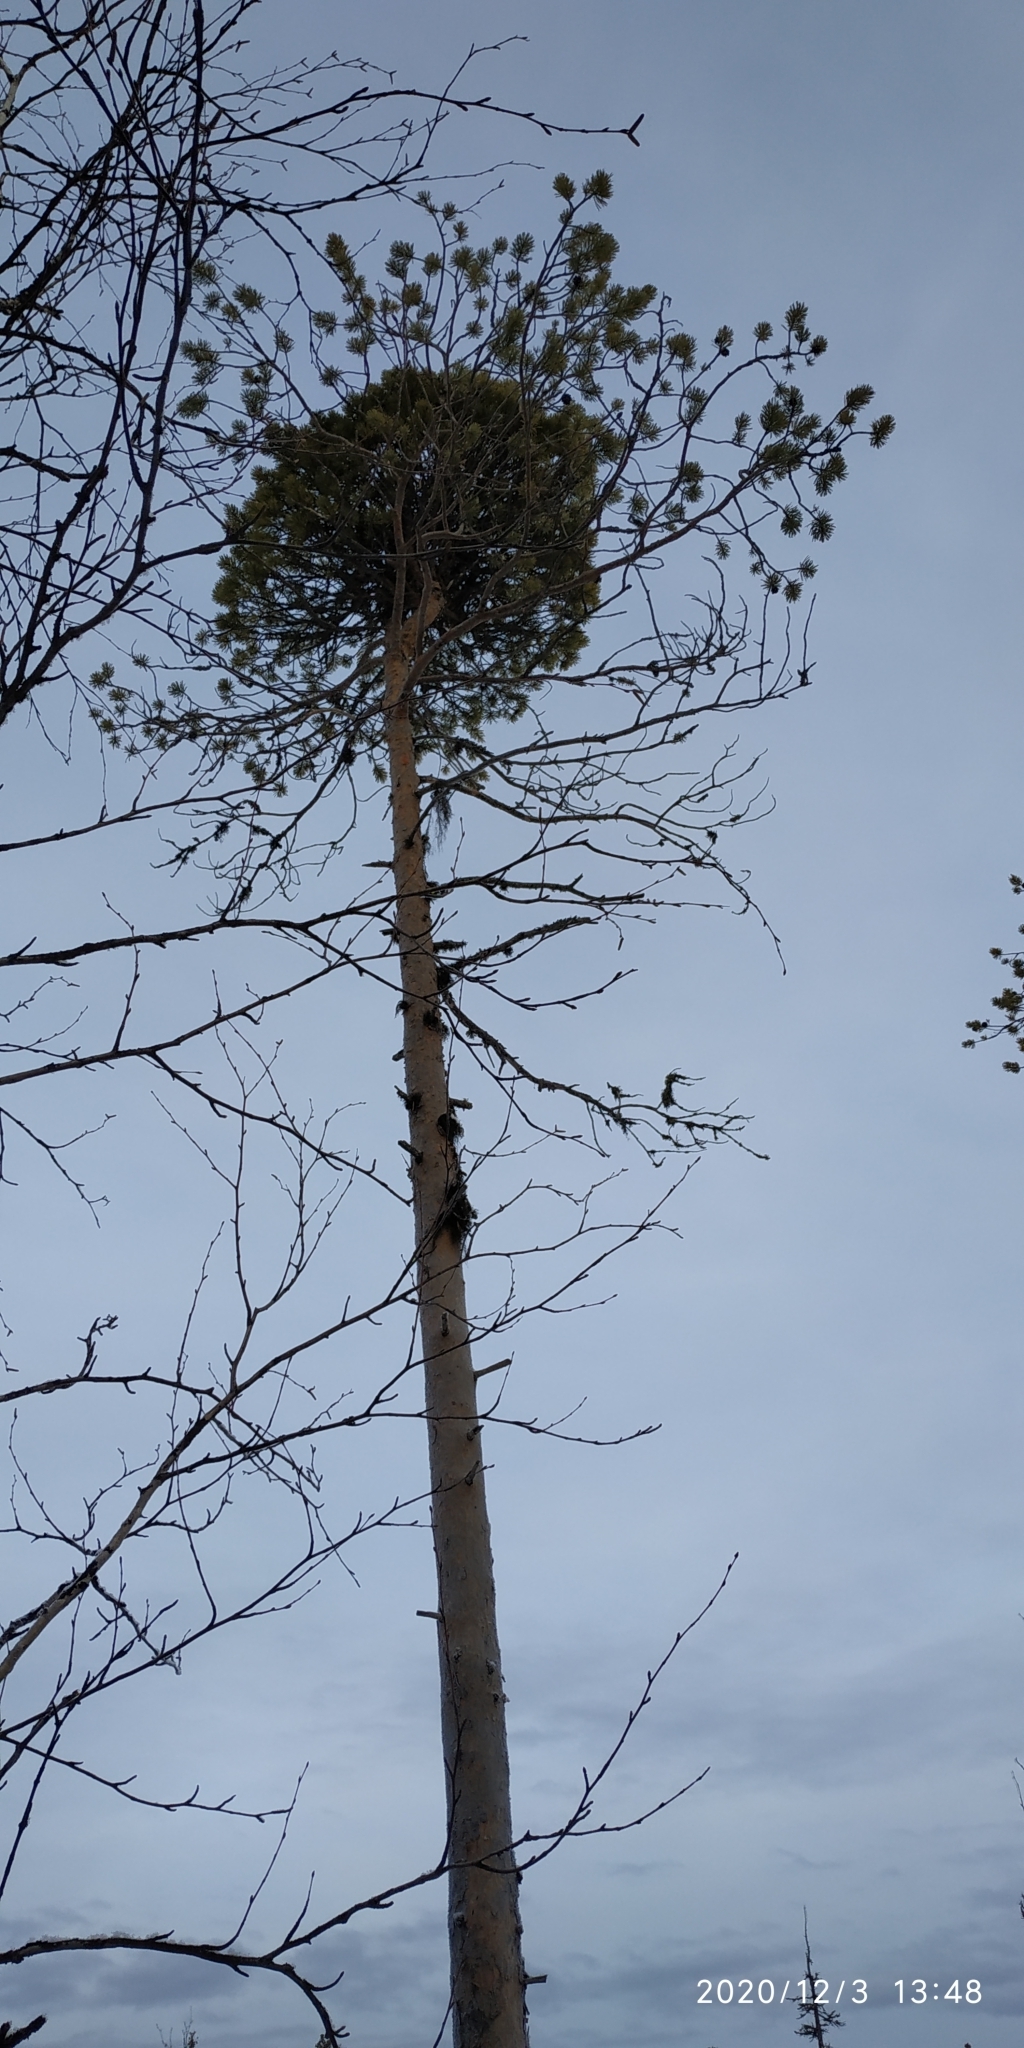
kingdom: Plantae
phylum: Tracheophyta
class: Pinopsida
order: Pinales
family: Pinaceae
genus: Pinus
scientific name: Pinus sylvestris
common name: Scots pine
